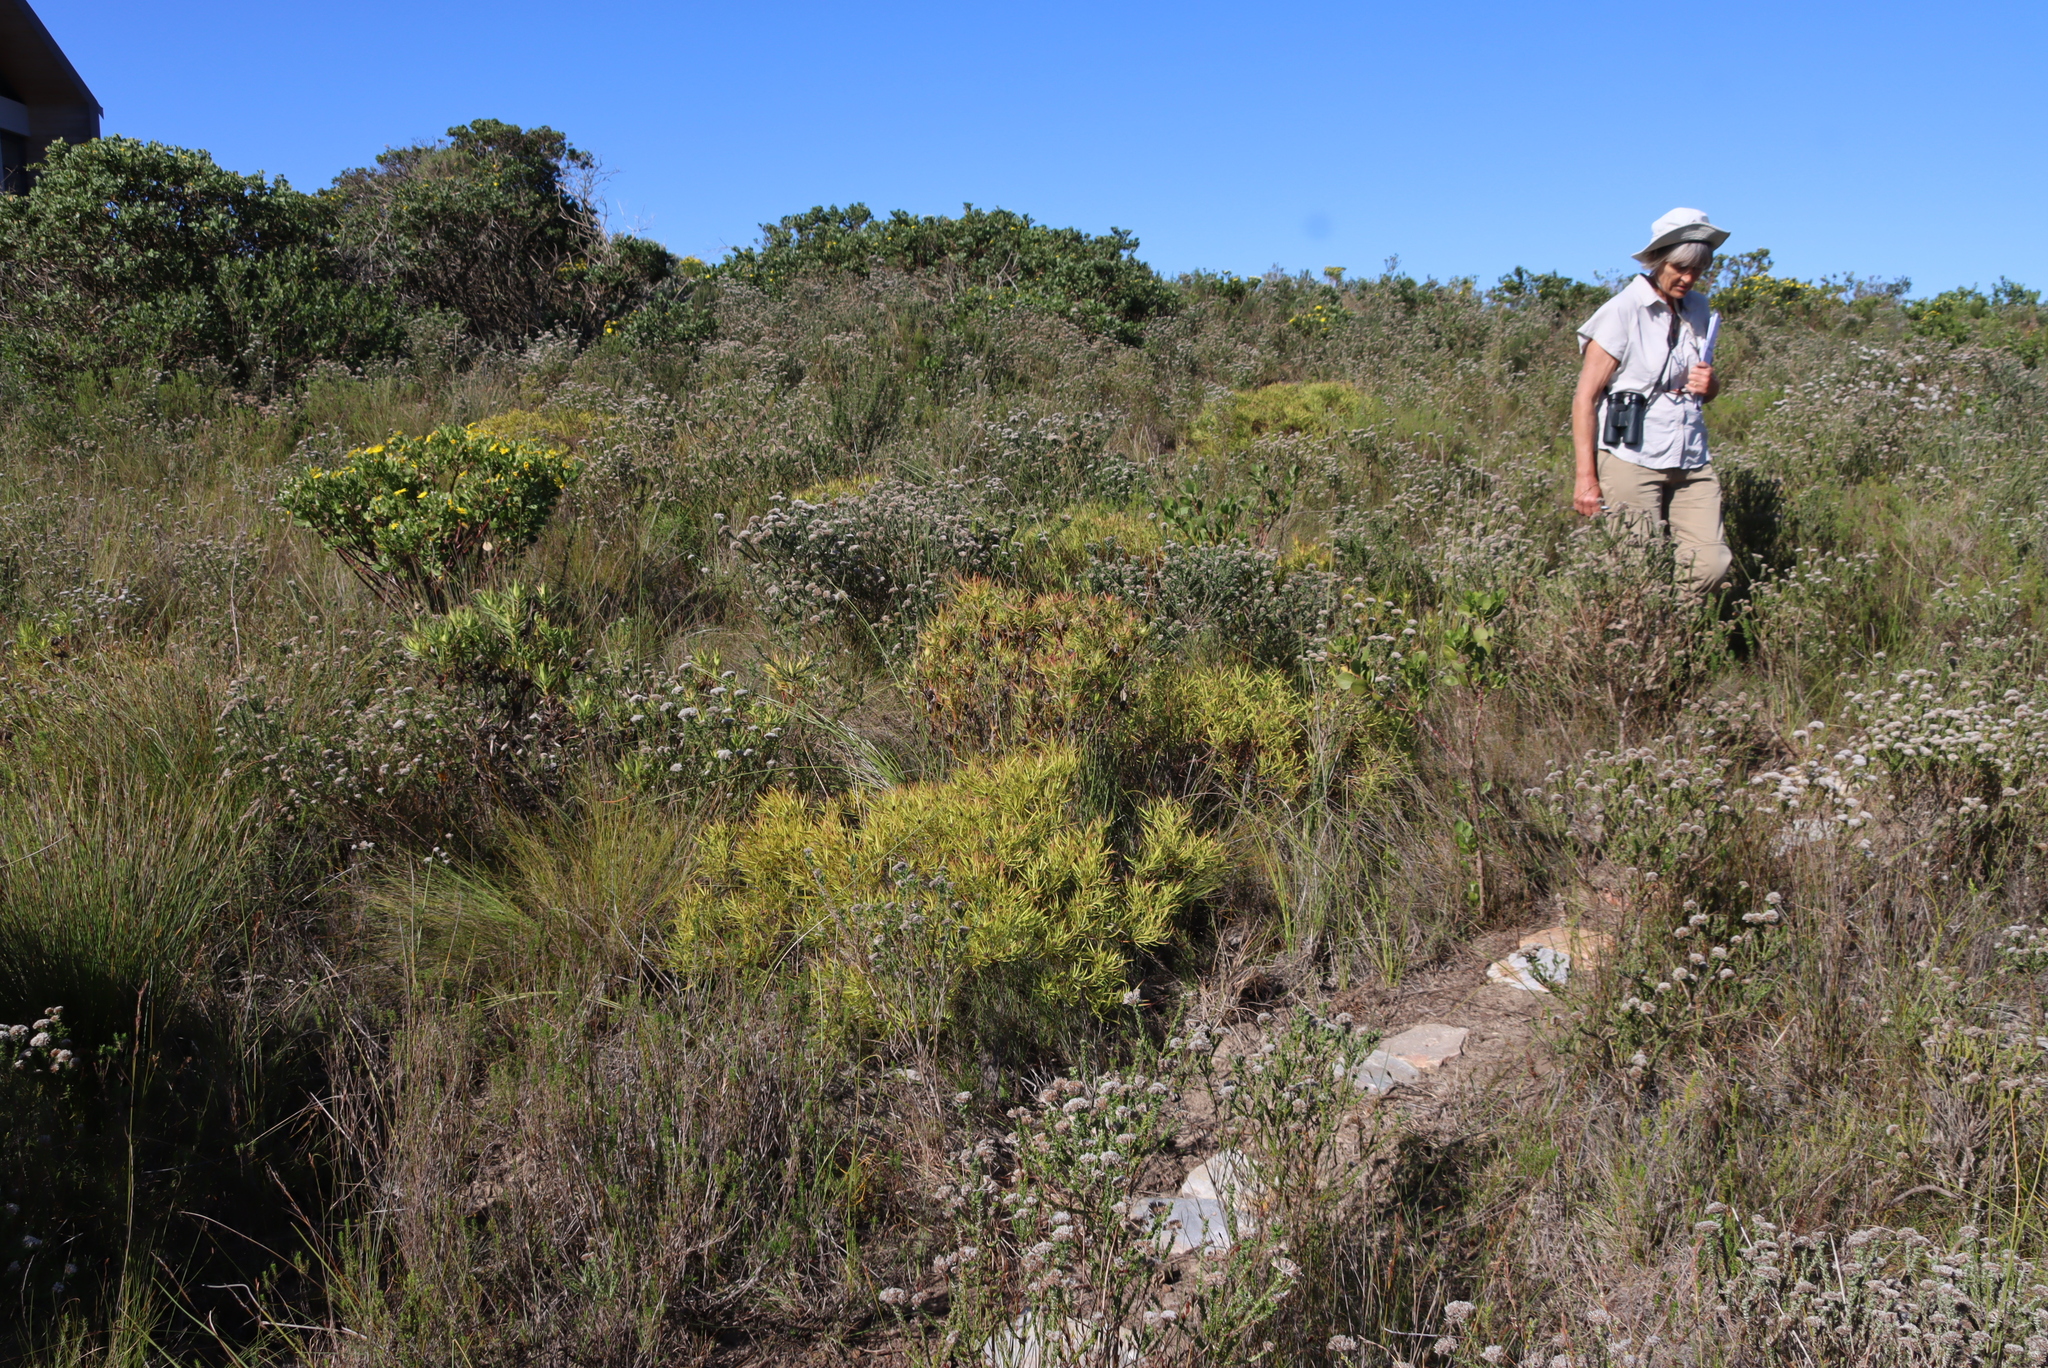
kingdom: Plantae
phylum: Tracheophyta
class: Magnoliopsida
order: Proteales
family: Proteaceae
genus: Leucadendron
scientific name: Leucadendron salignum
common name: Common sunshine conebush
